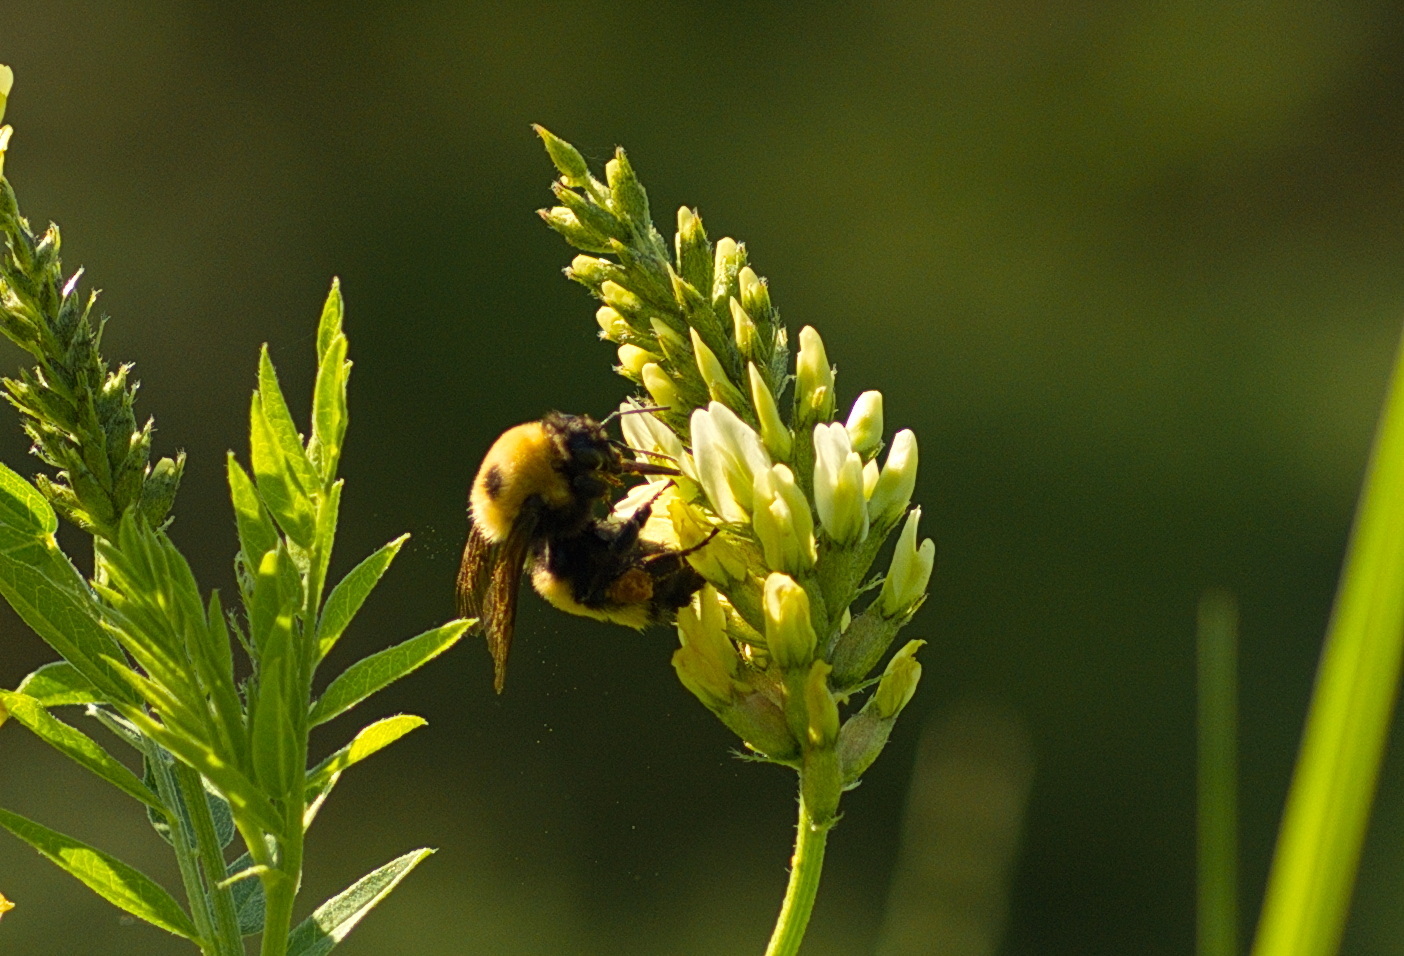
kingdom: Animalia
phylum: Arthropoda
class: Insecta
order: Hymenoptera
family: Apidae
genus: Bombus
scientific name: Bombus nevadensis
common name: Nevada bumble bee
